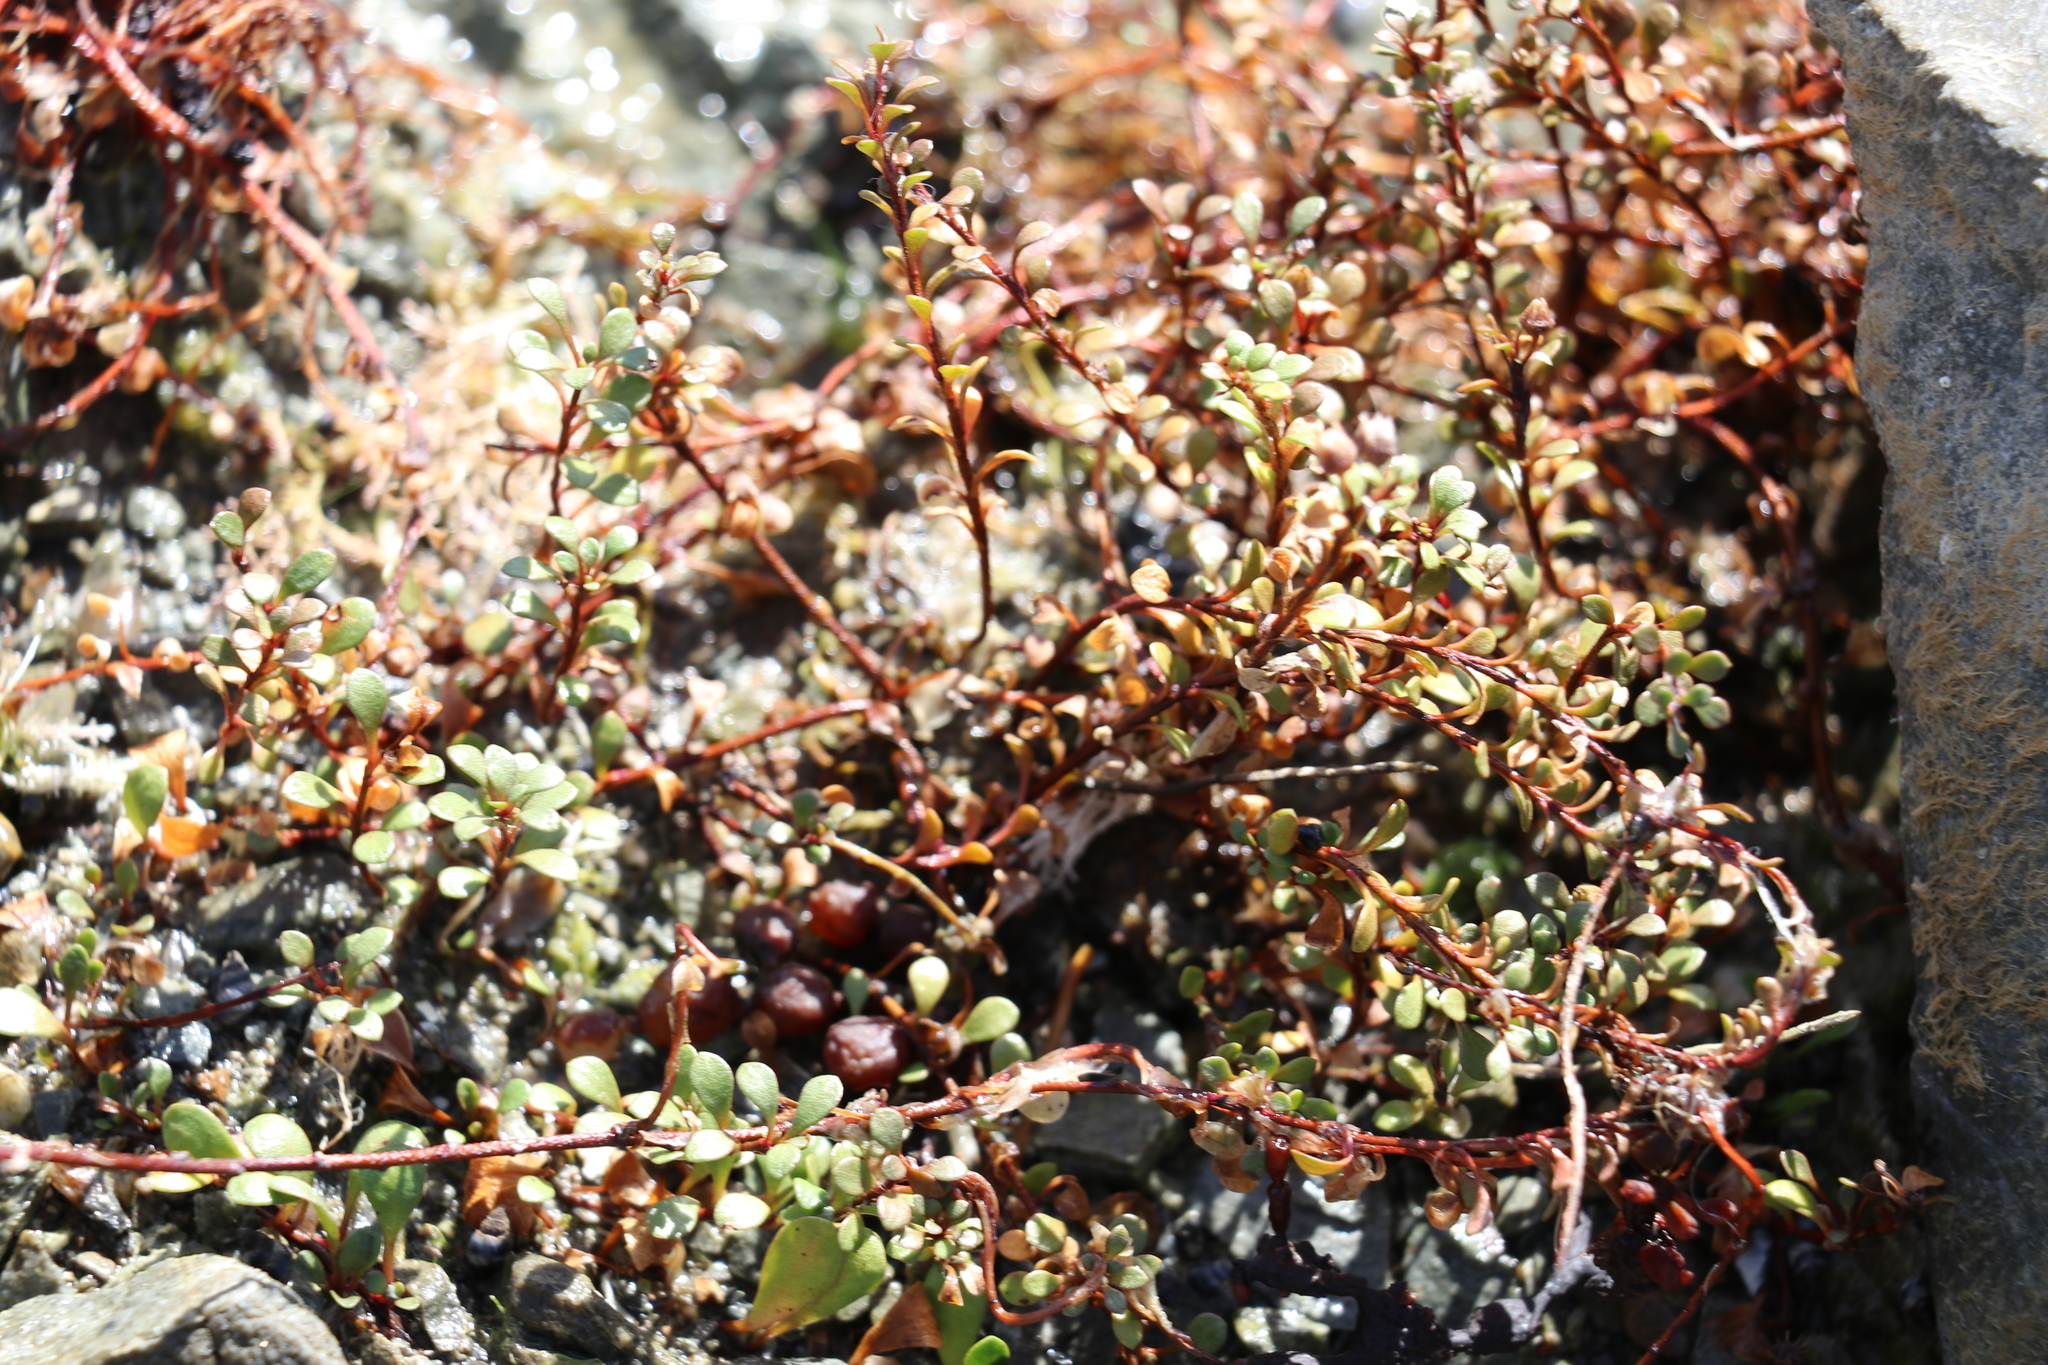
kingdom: Plantae
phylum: Tracheophyta
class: Magnoliopsida
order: Ericales
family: Primulaceae
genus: Samolus
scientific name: Samolus repens
